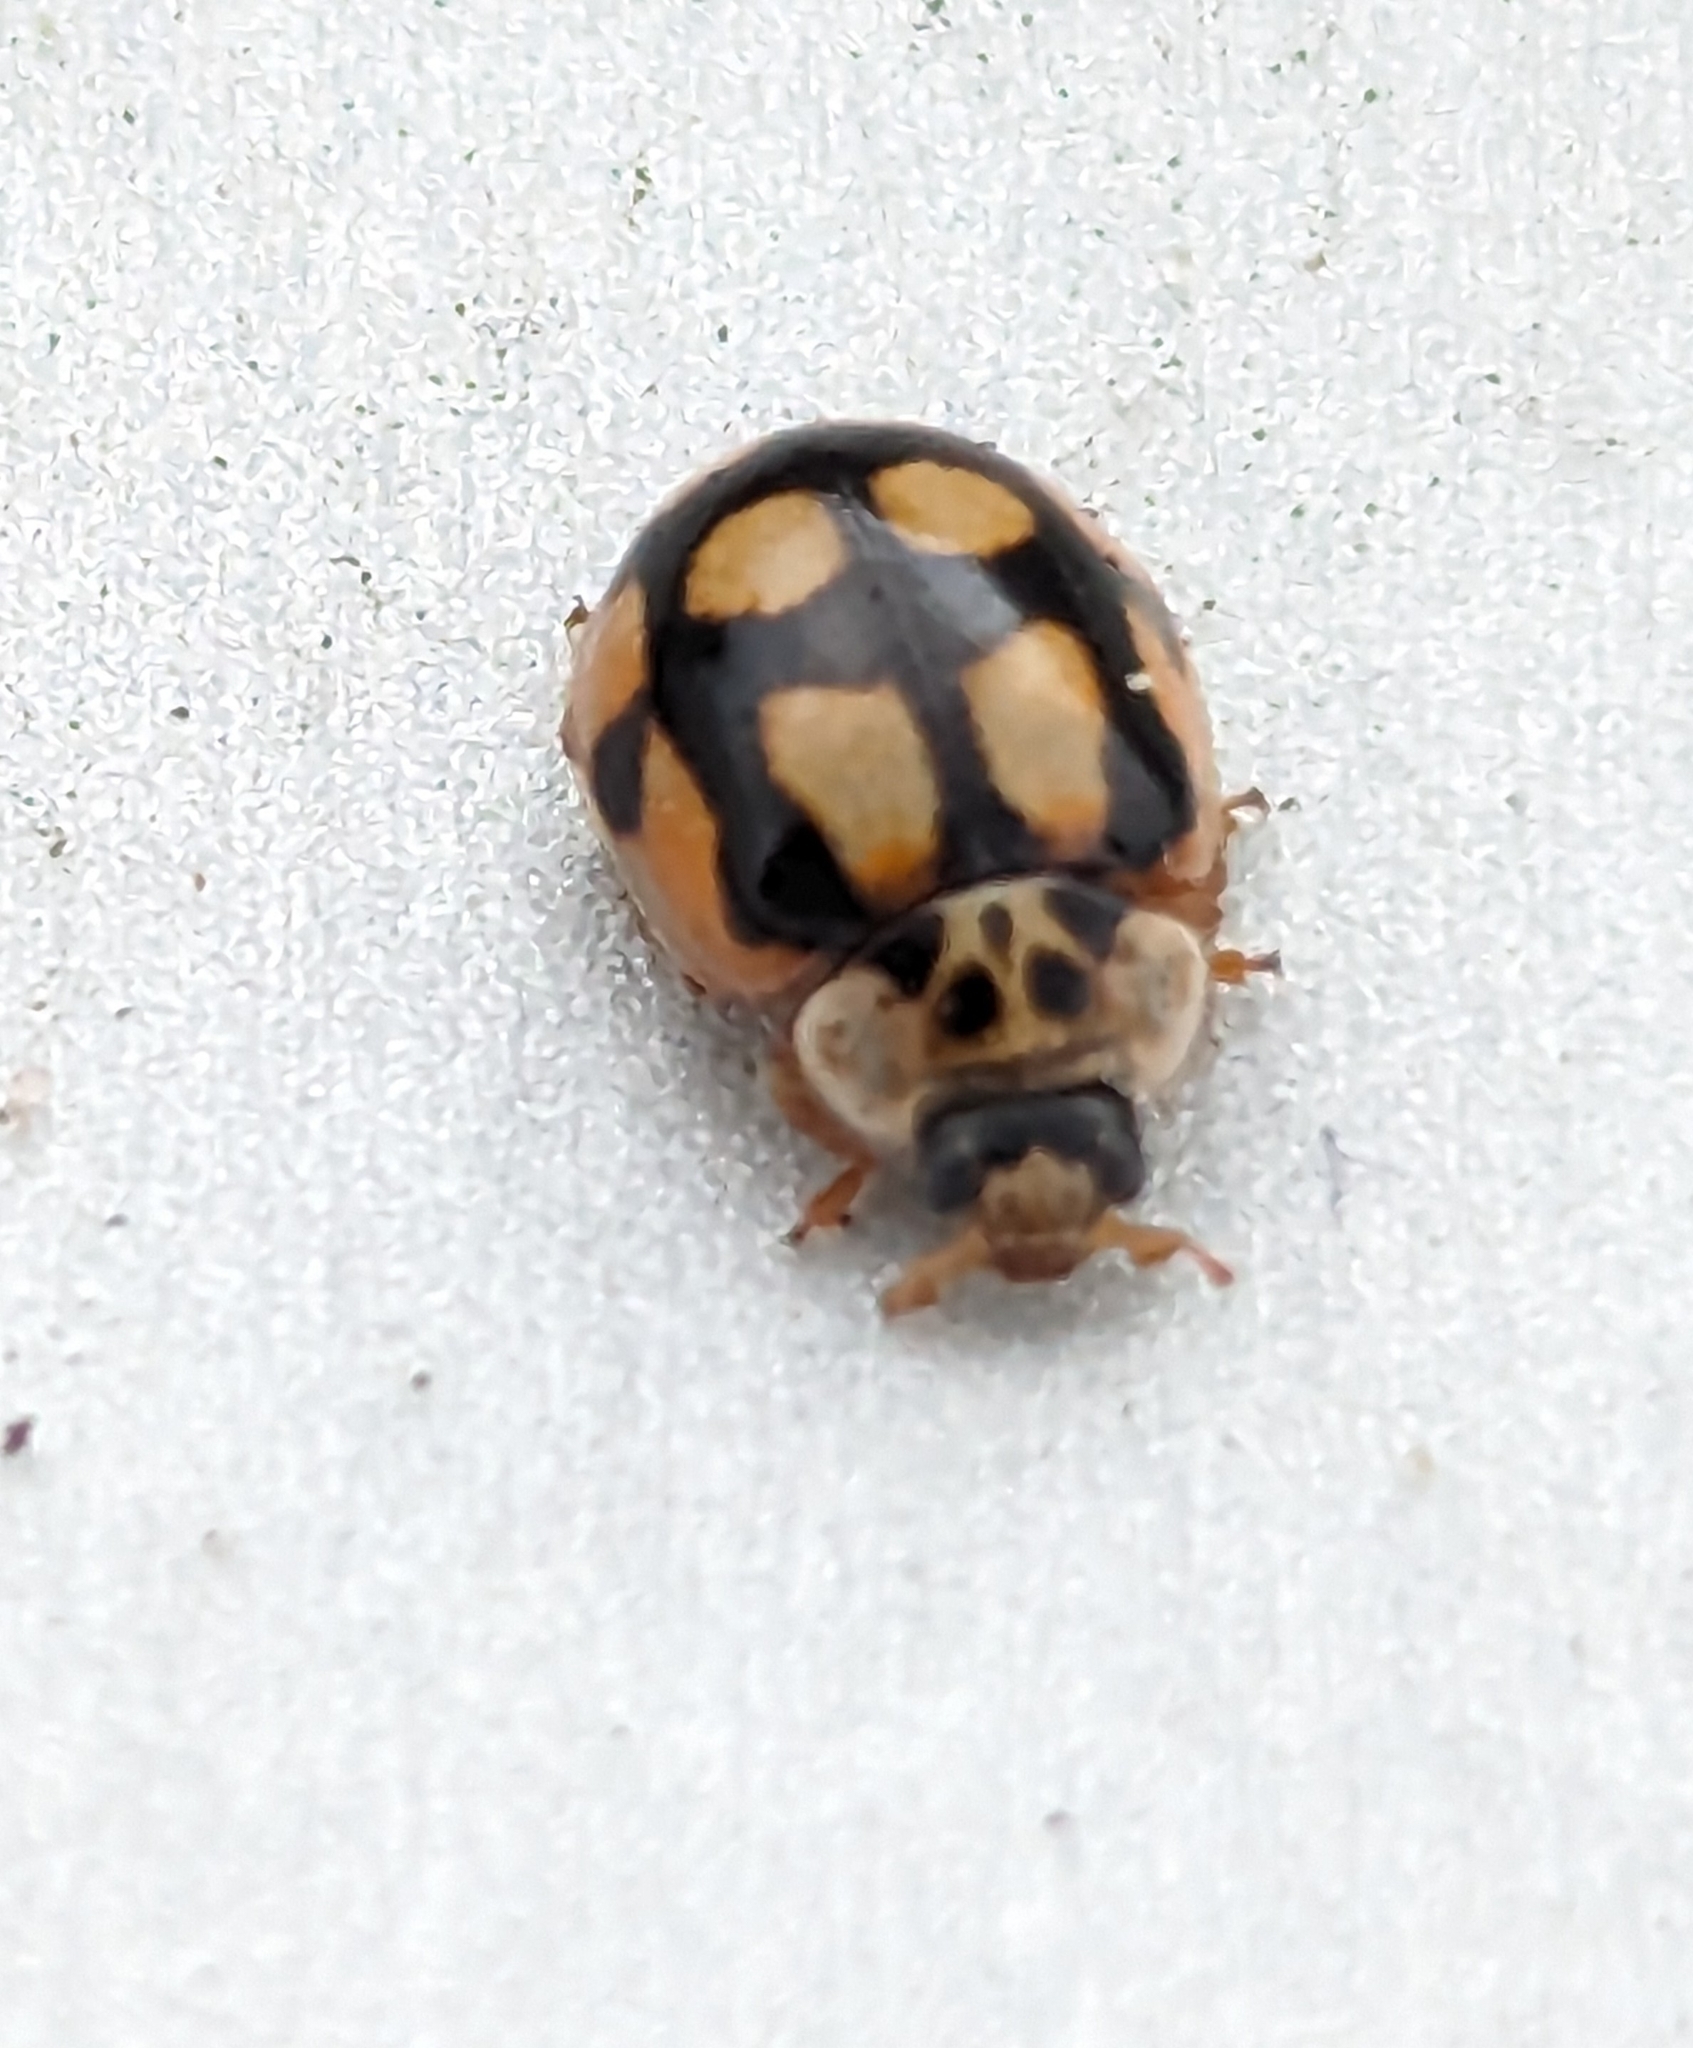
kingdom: Animalia
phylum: Arthropoda
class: Insecta
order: Coleoptera
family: Coccinellidae
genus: Adalia
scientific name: Adalia decempunctata
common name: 10-spot ladybird
